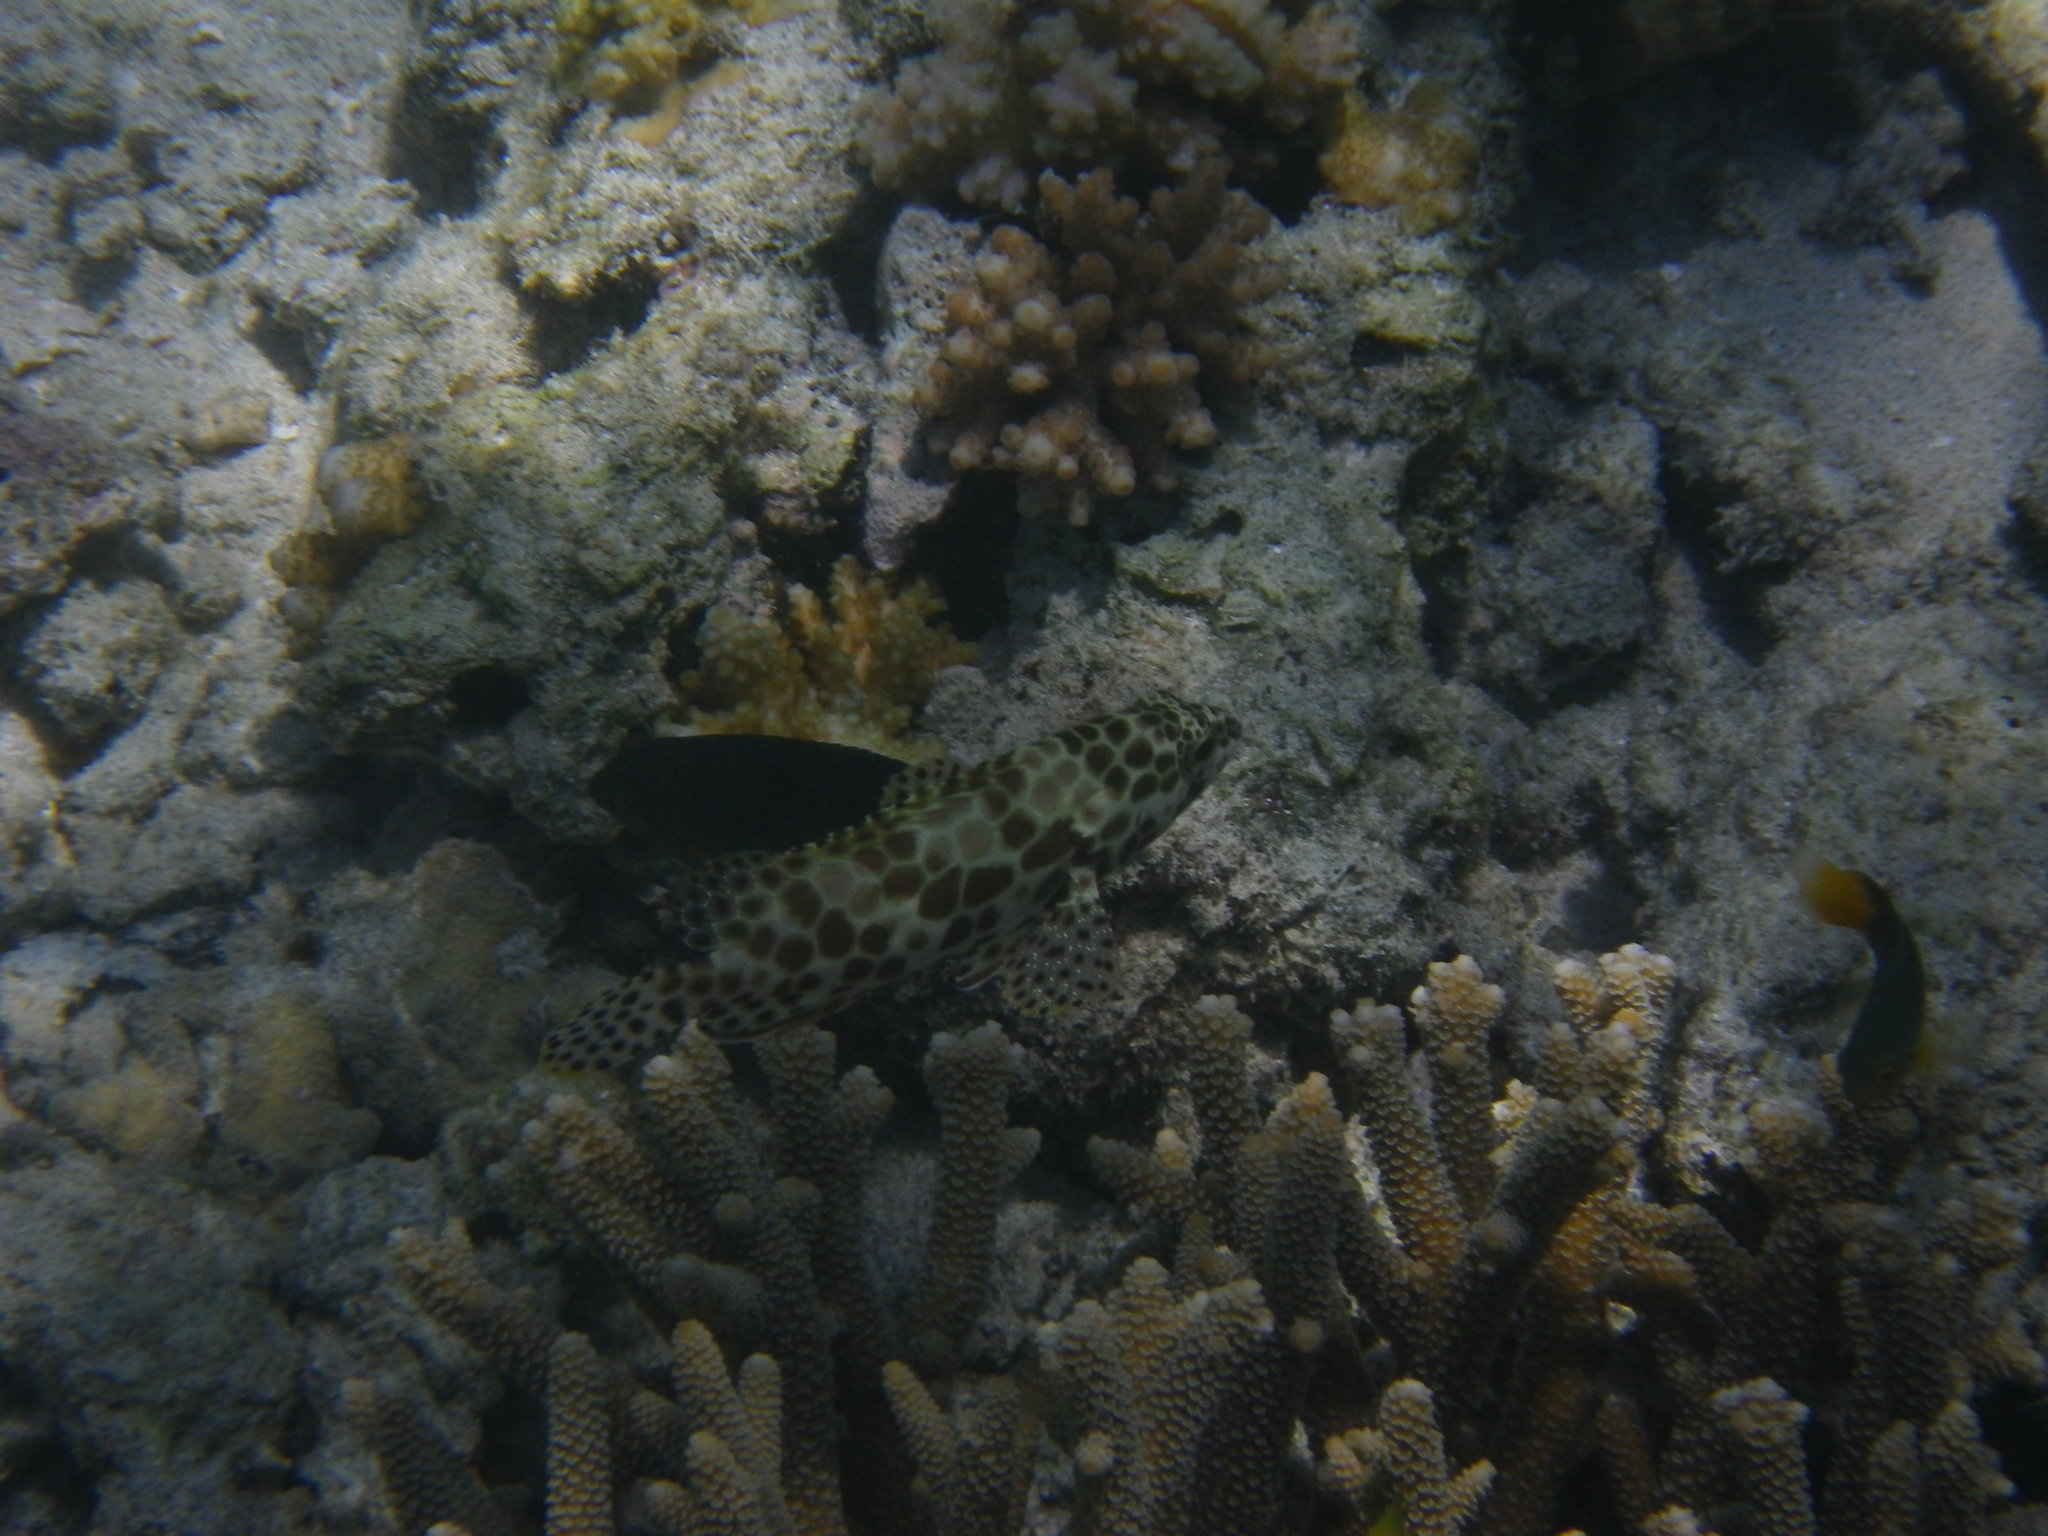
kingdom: Animalia
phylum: Chordata
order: Perciformes
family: Serranidae
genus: Epinephelus
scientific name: Epinephelus merra
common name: Honeycomb grouper
